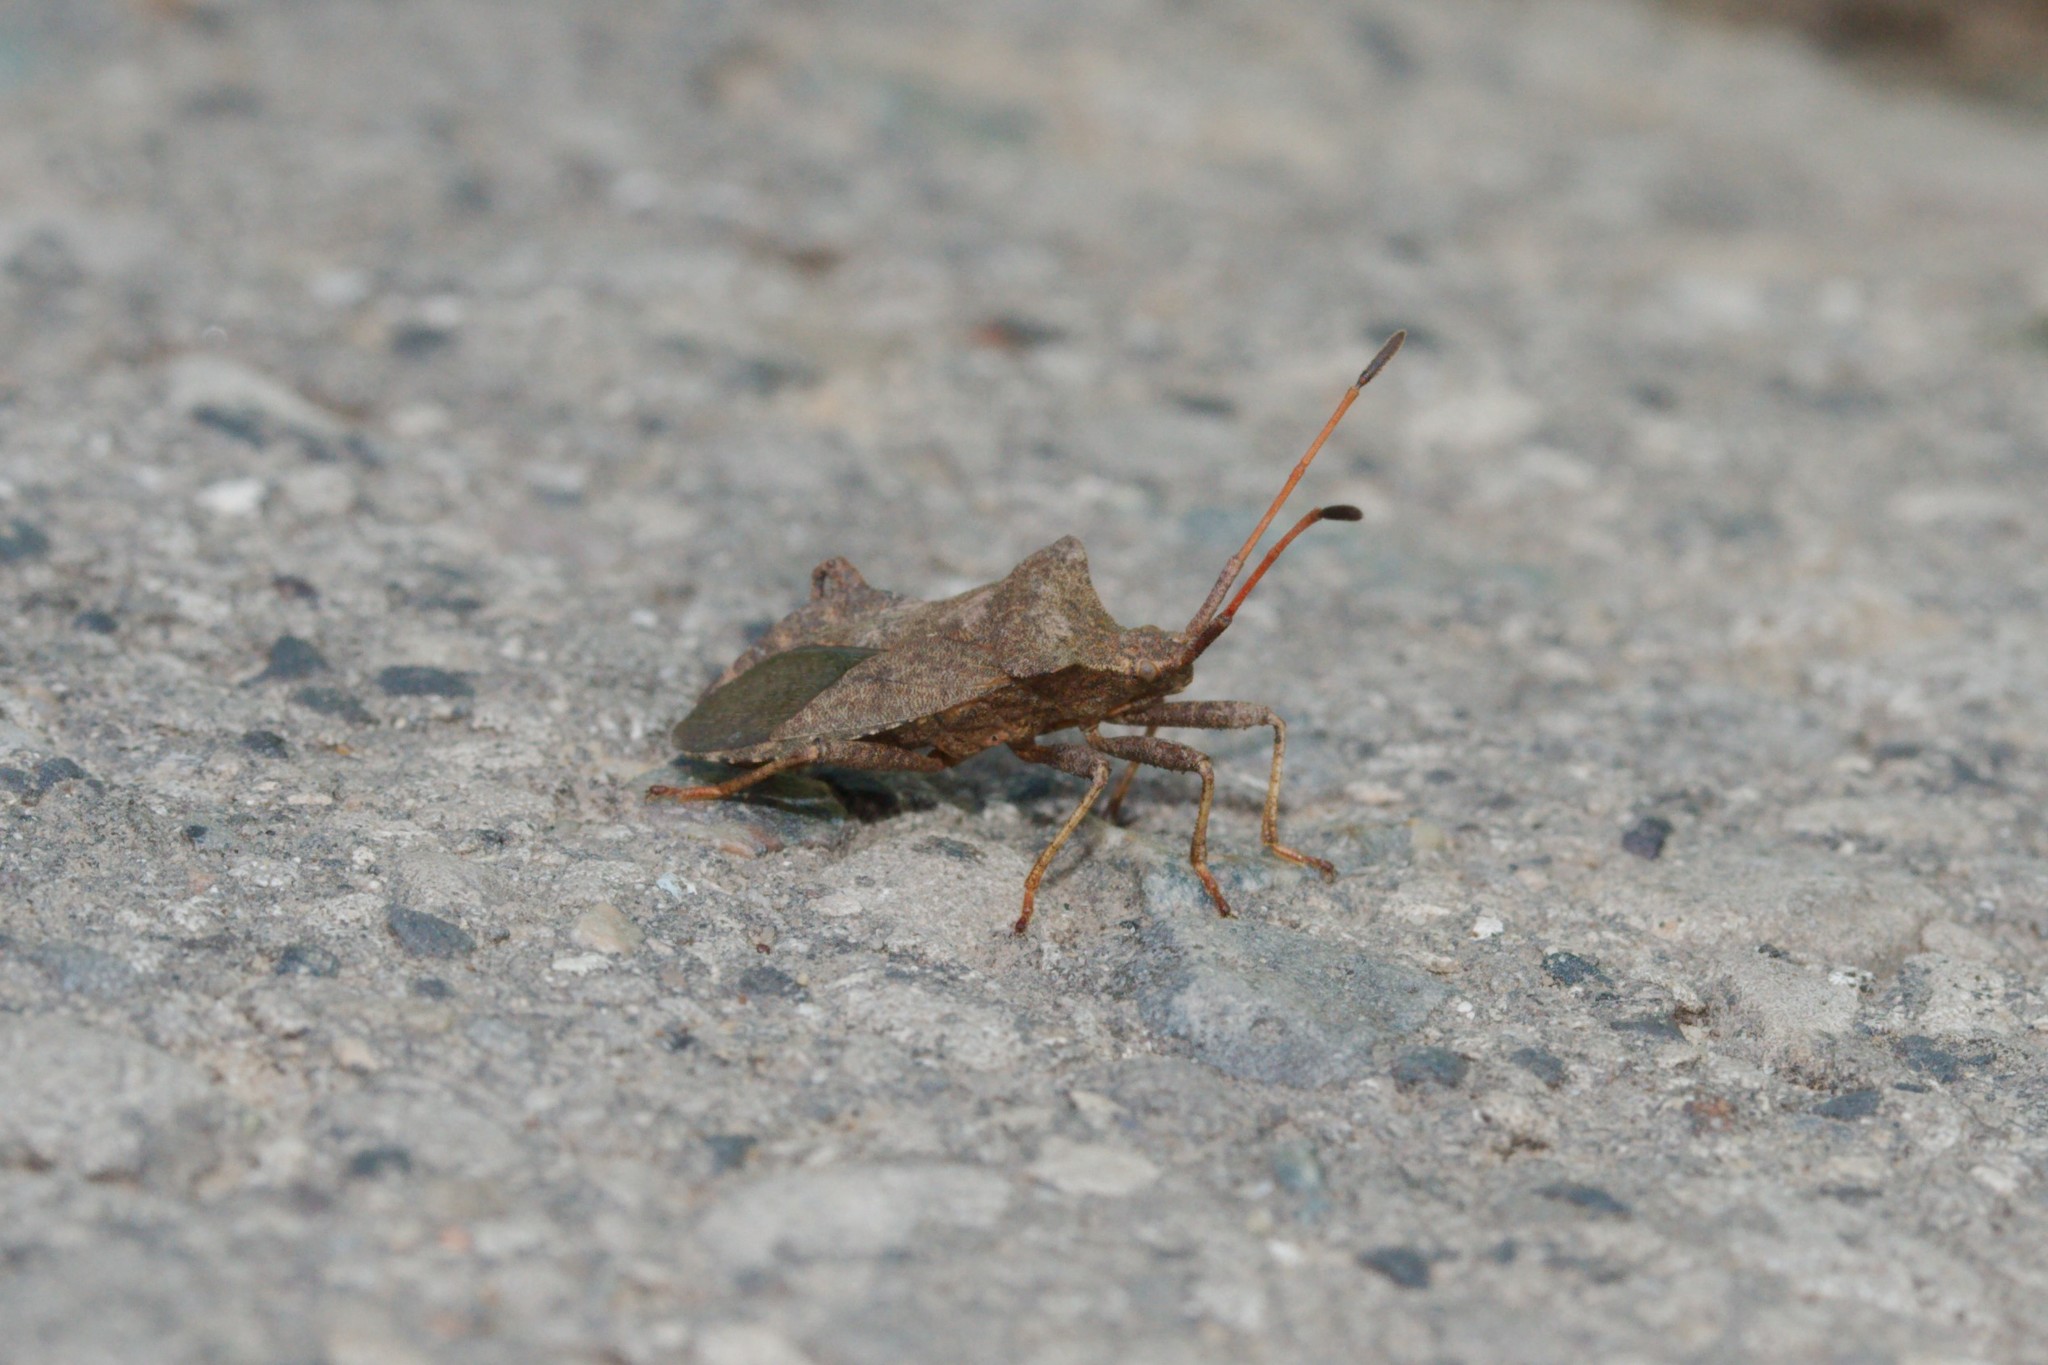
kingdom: Animalia
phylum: Arthropoda
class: Insecta
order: Hemiptera
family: Coreidae
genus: Coreus
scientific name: Coreus marginatus
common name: Dock bug
